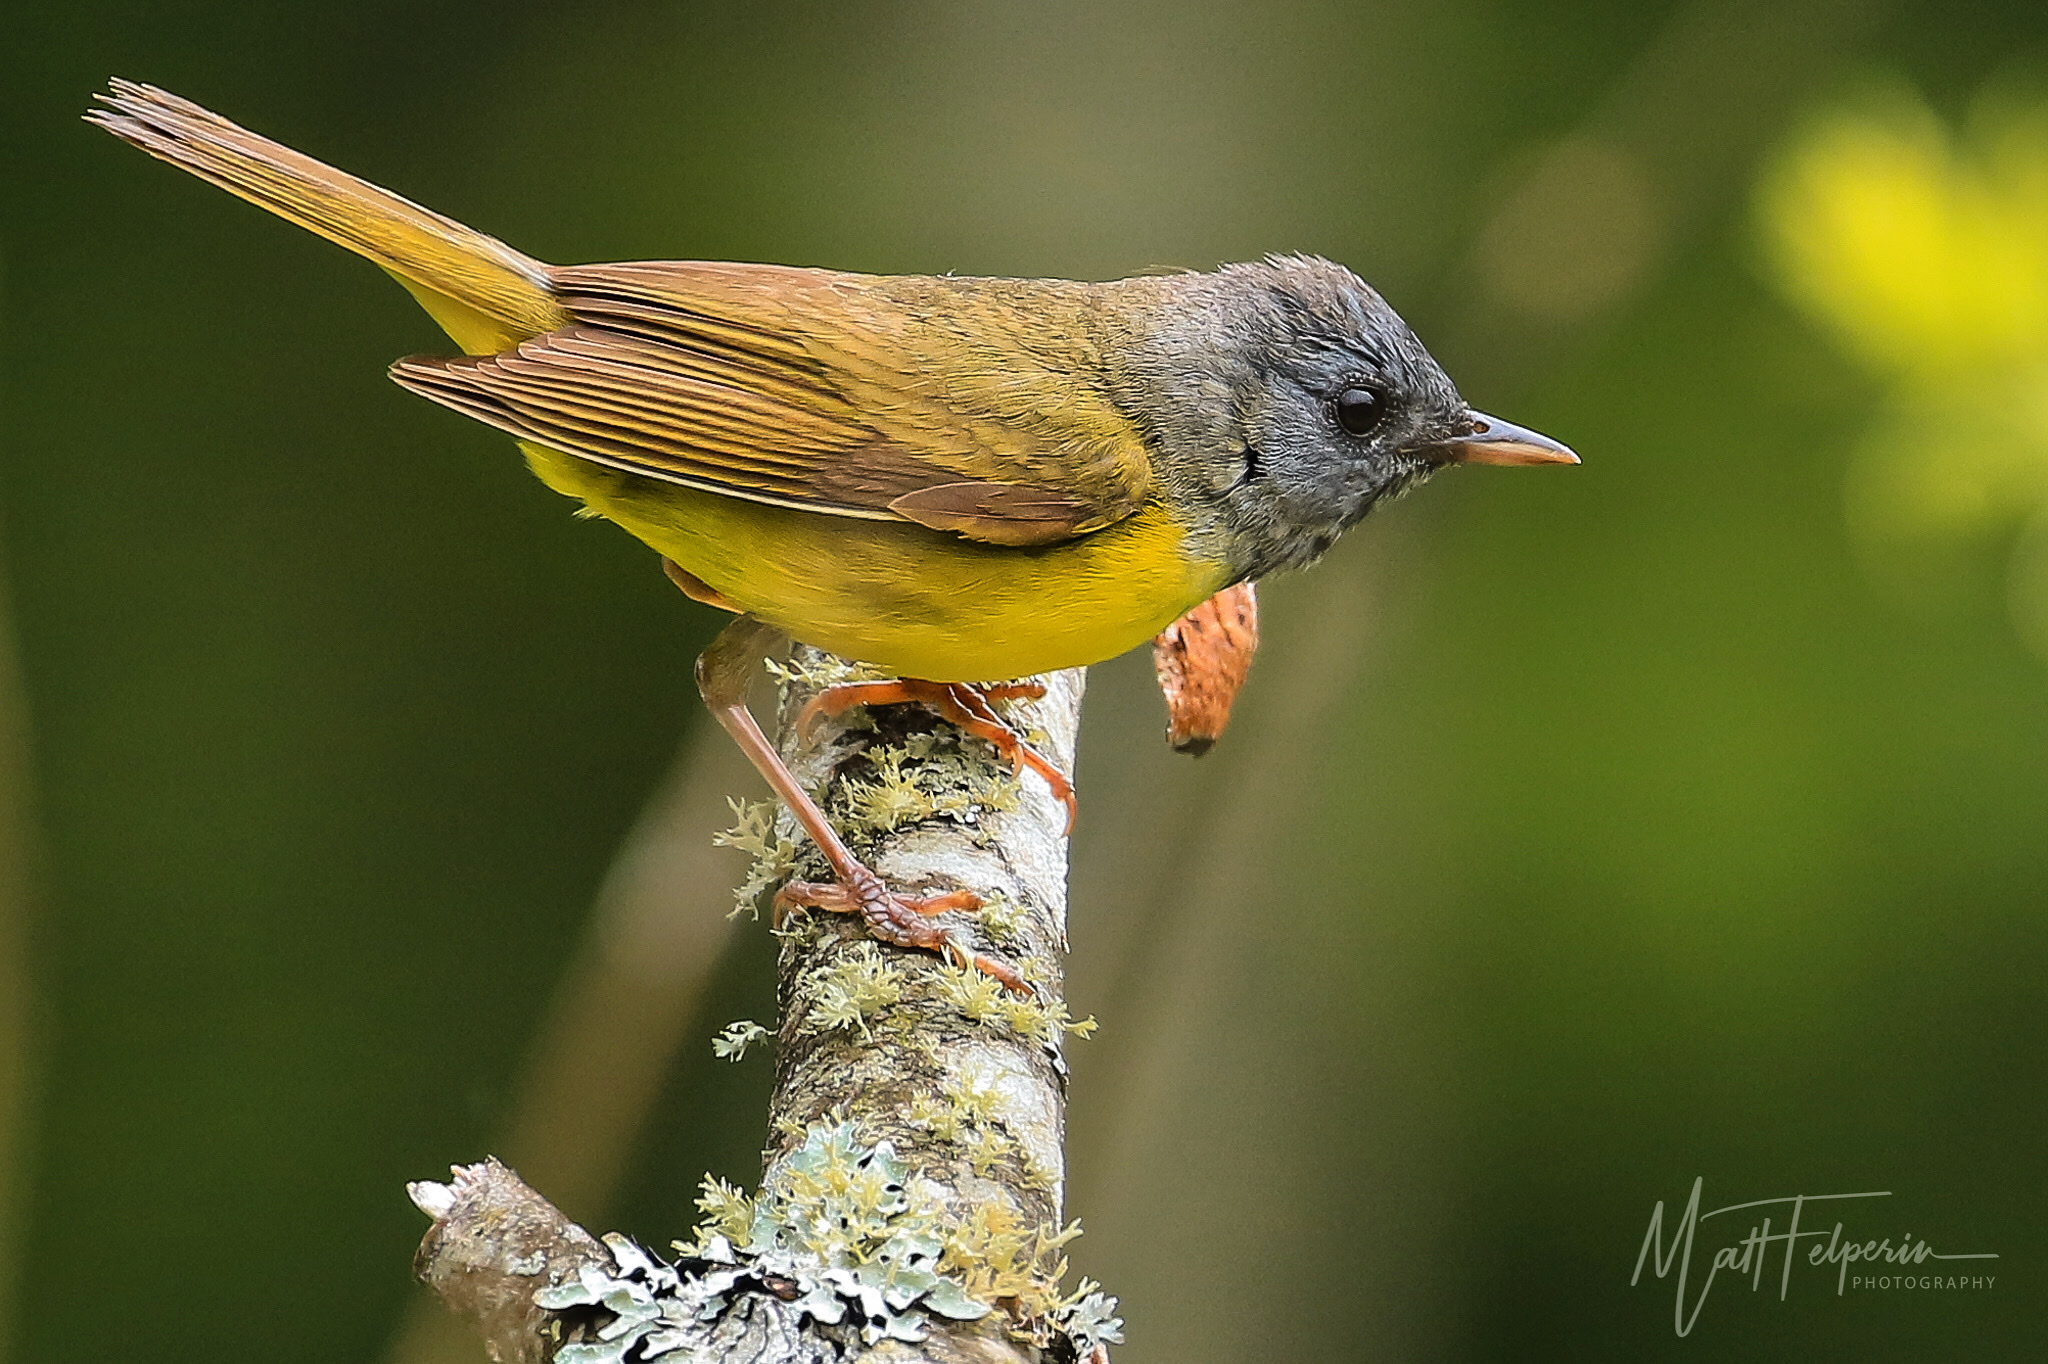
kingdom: Animalia
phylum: Chordata
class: Aves
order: Passeriformes
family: Parulidae
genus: Geothlypis
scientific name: Geothlypis philadelphia
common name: Mourning warbler
